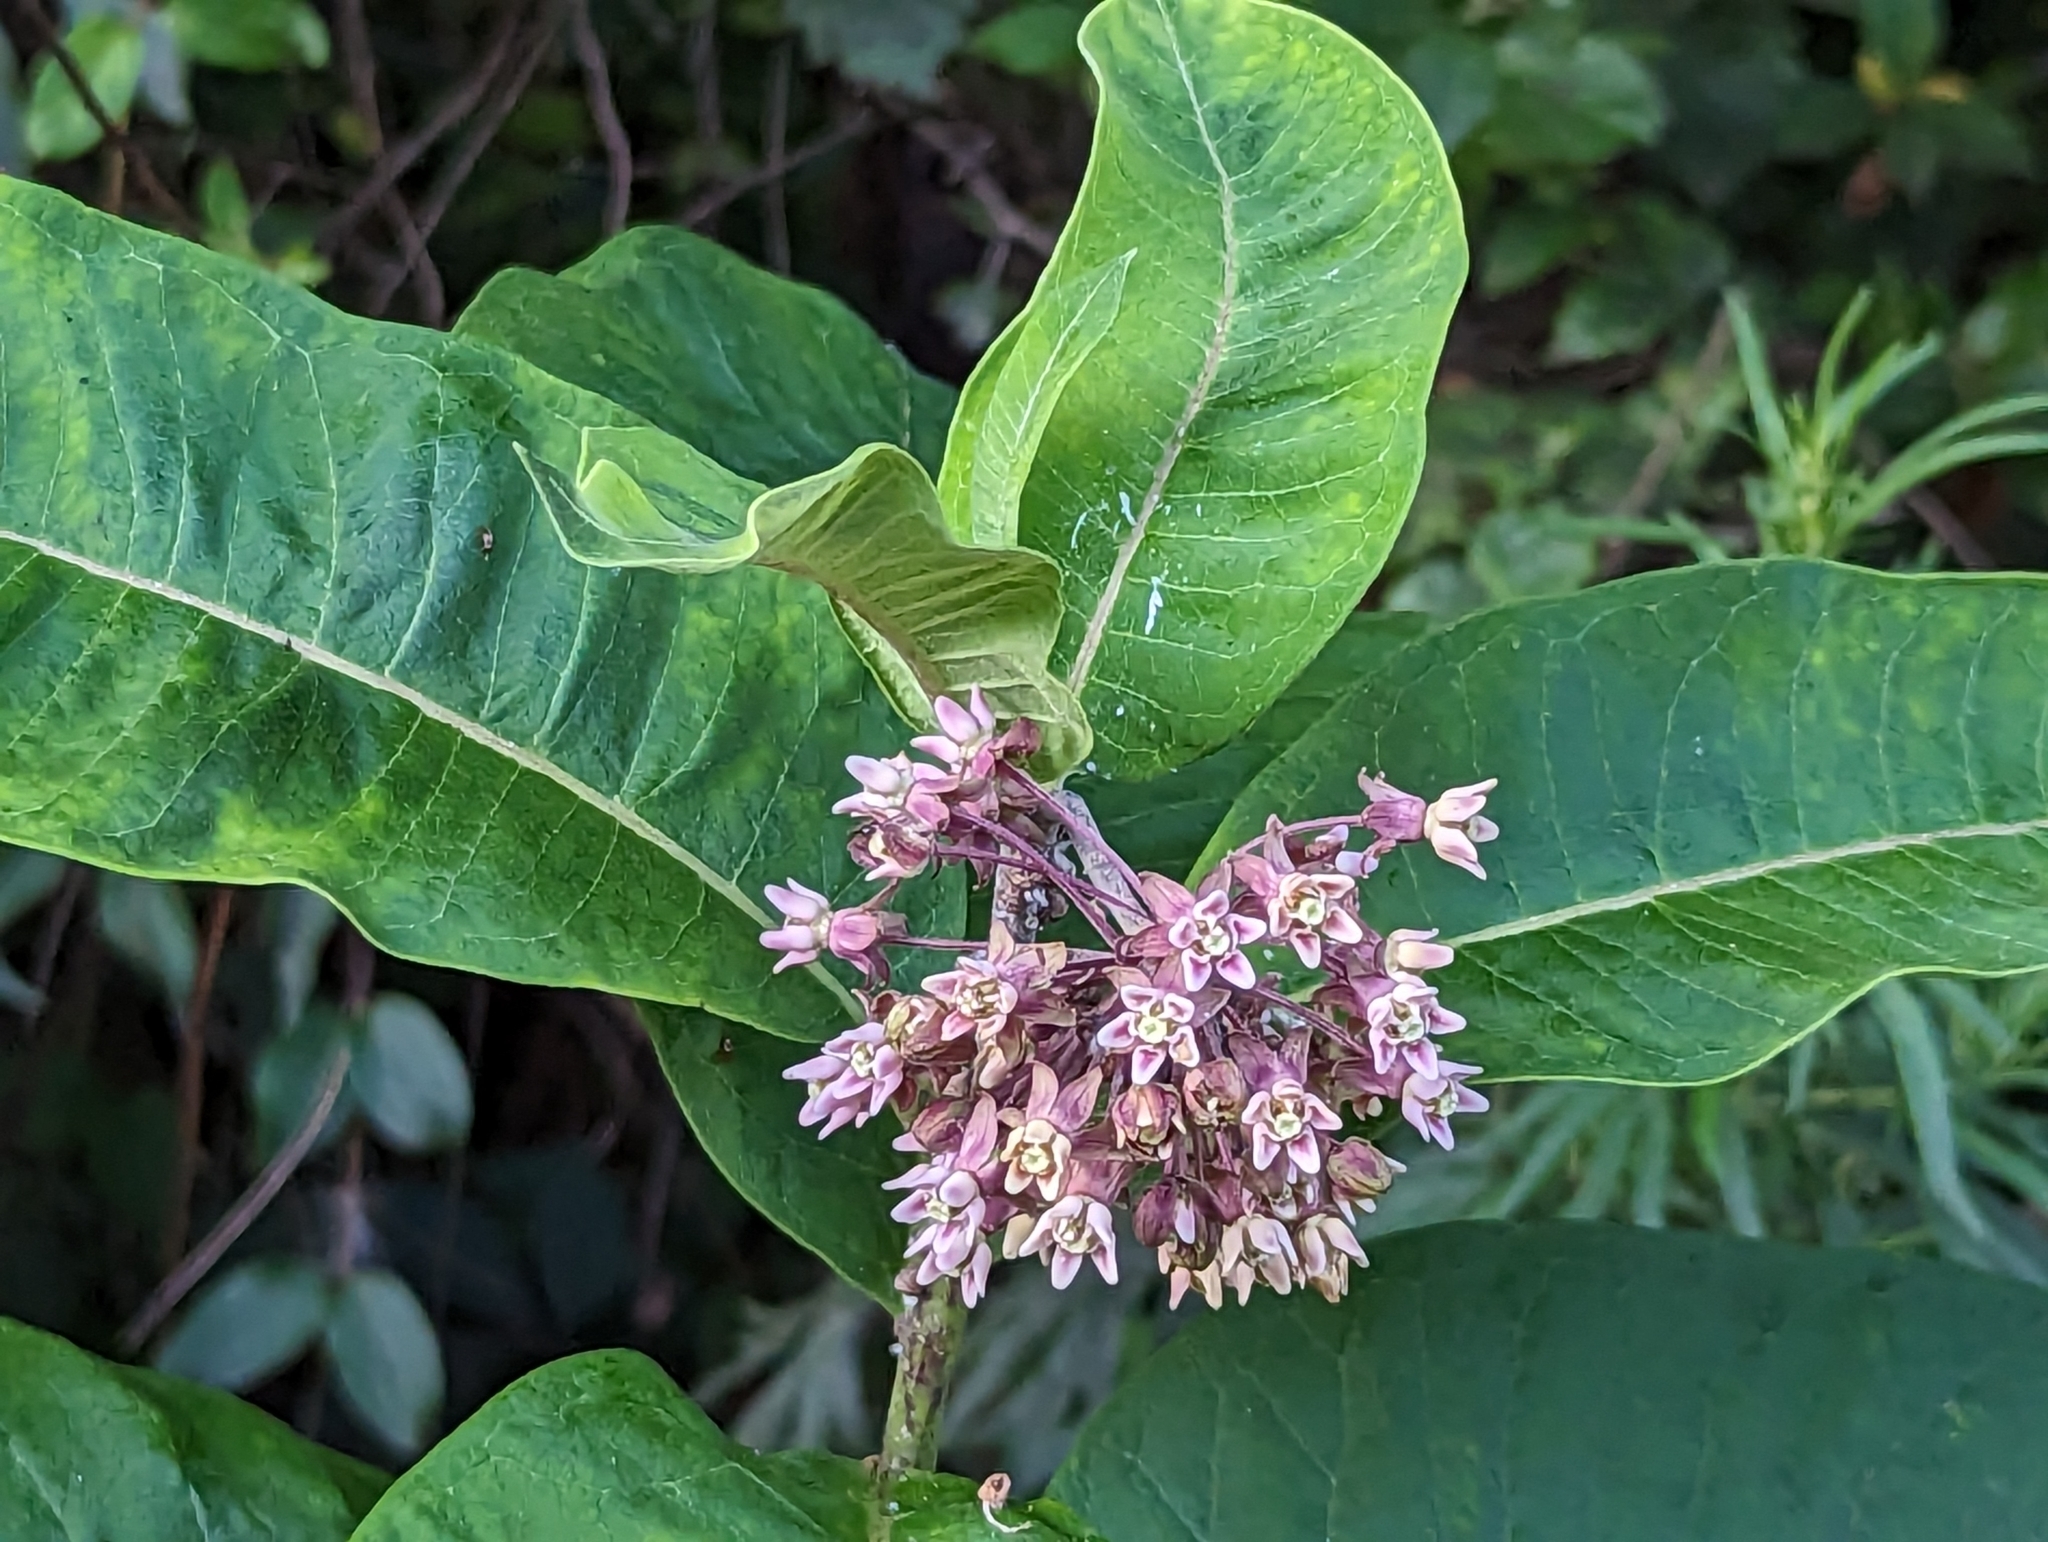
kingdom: Plantae
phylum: Tracheophyta
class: Magnoliopsida
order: Gentianales
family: Apocynaceae
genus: Asclepias
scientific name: Asclepias syriaca
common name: Common milkweed
